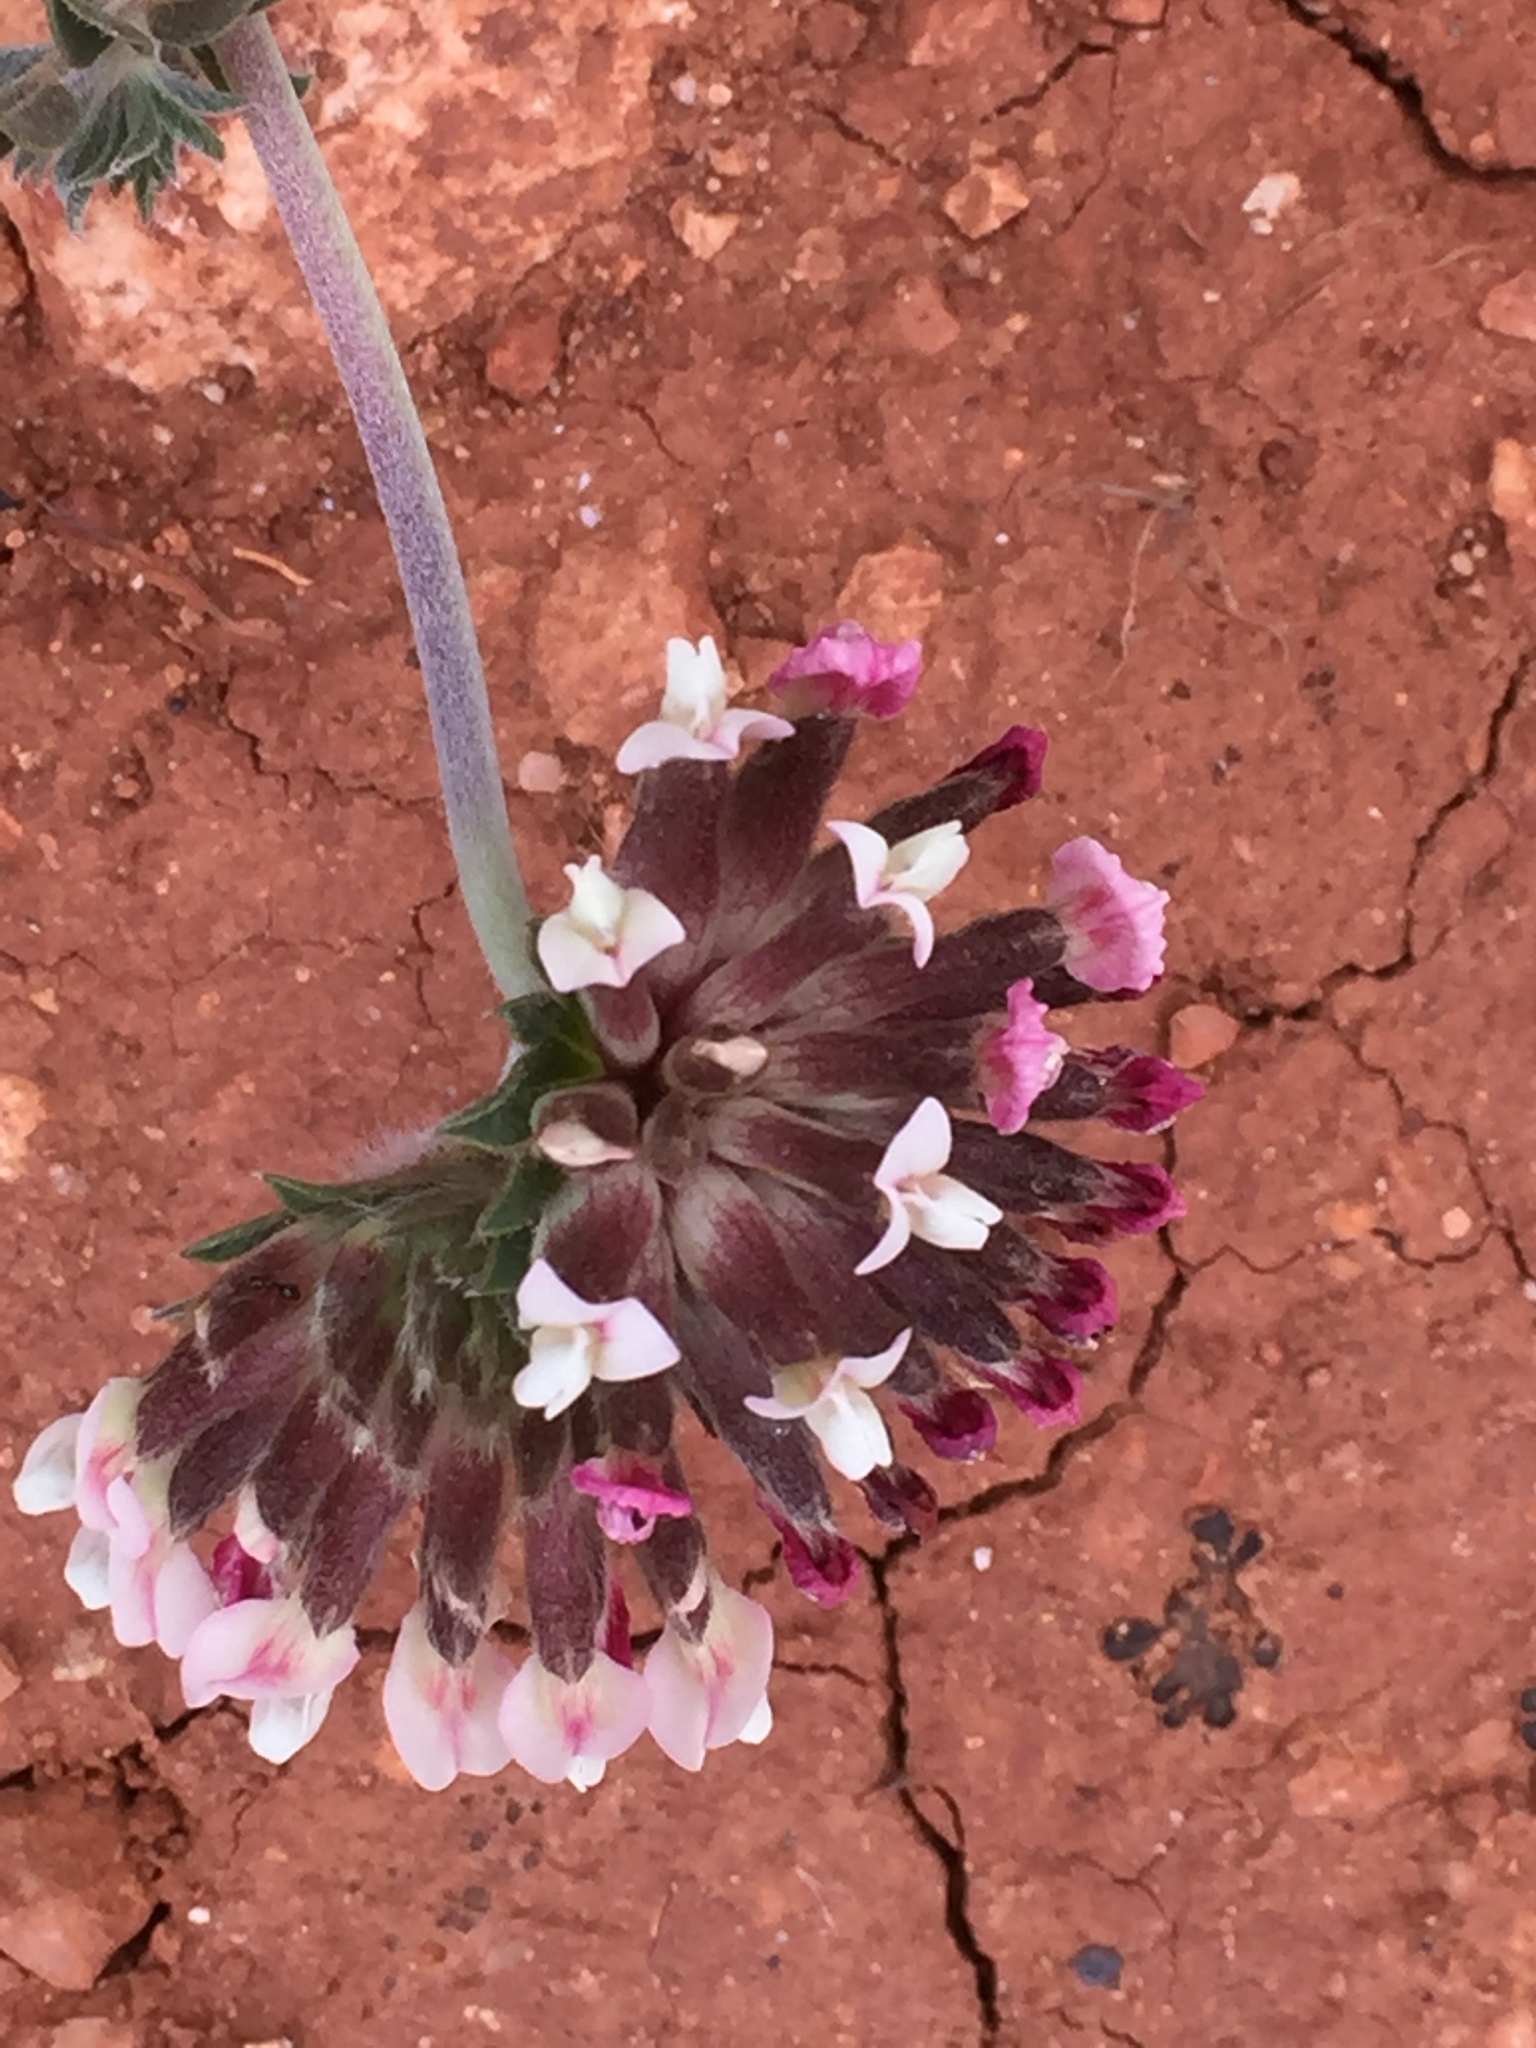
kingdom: Plantae
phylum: Tracheophyta
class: Magnoliopsida
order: Fabales
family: Fabaceae
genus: Anthyllis
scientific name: Anthyllis vulneraria
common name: Kidney vetch
